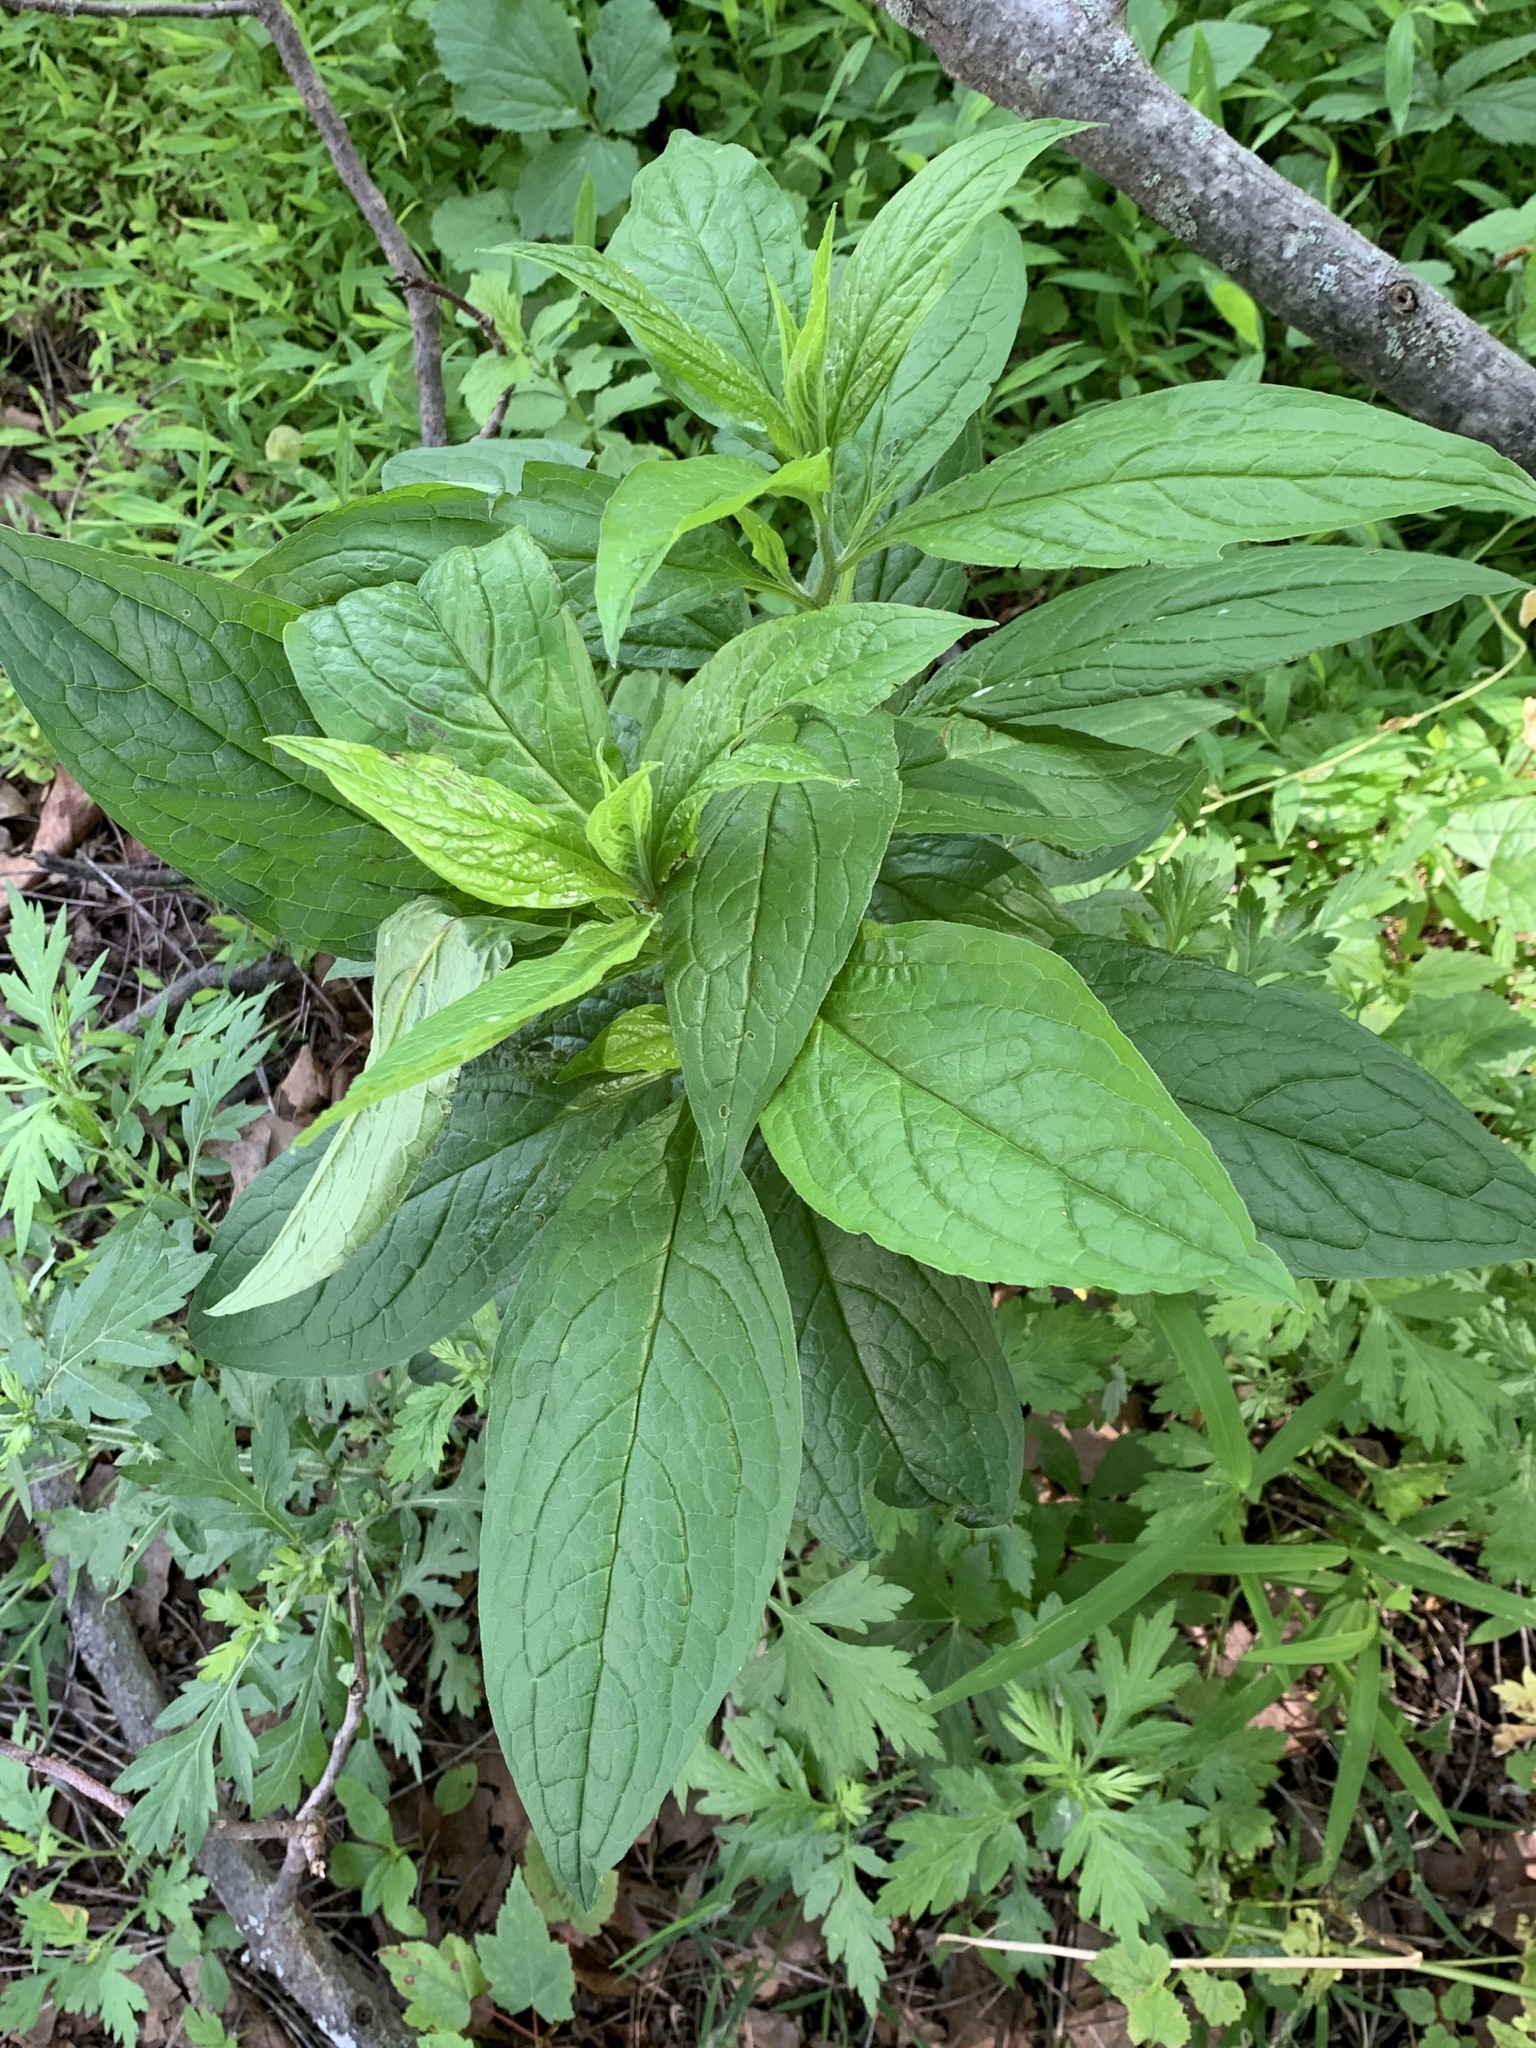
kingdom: Plantae
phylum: Tracheophyta
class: Magnoliopsida
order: Boraginales
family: Boraginaceae
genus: Hackelia
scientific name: Hackelia virginiana
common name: Beggar's-lice
